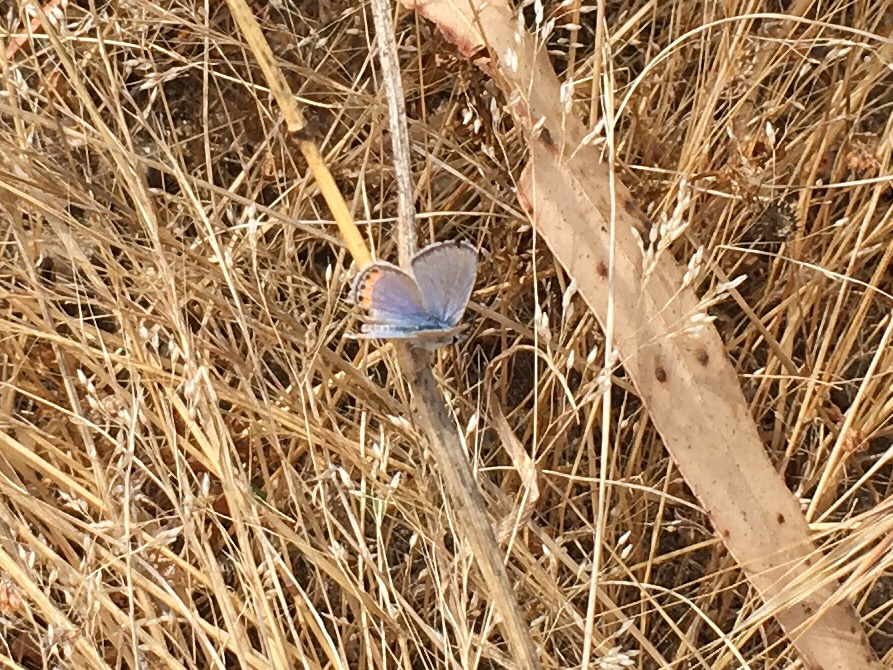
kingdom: Animalia
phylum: Arthropoda
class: Insecta
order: Lepidoptera
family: Lycaenidae
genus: Icaricia
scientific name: Icaricia acmon
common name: Acmon blue
